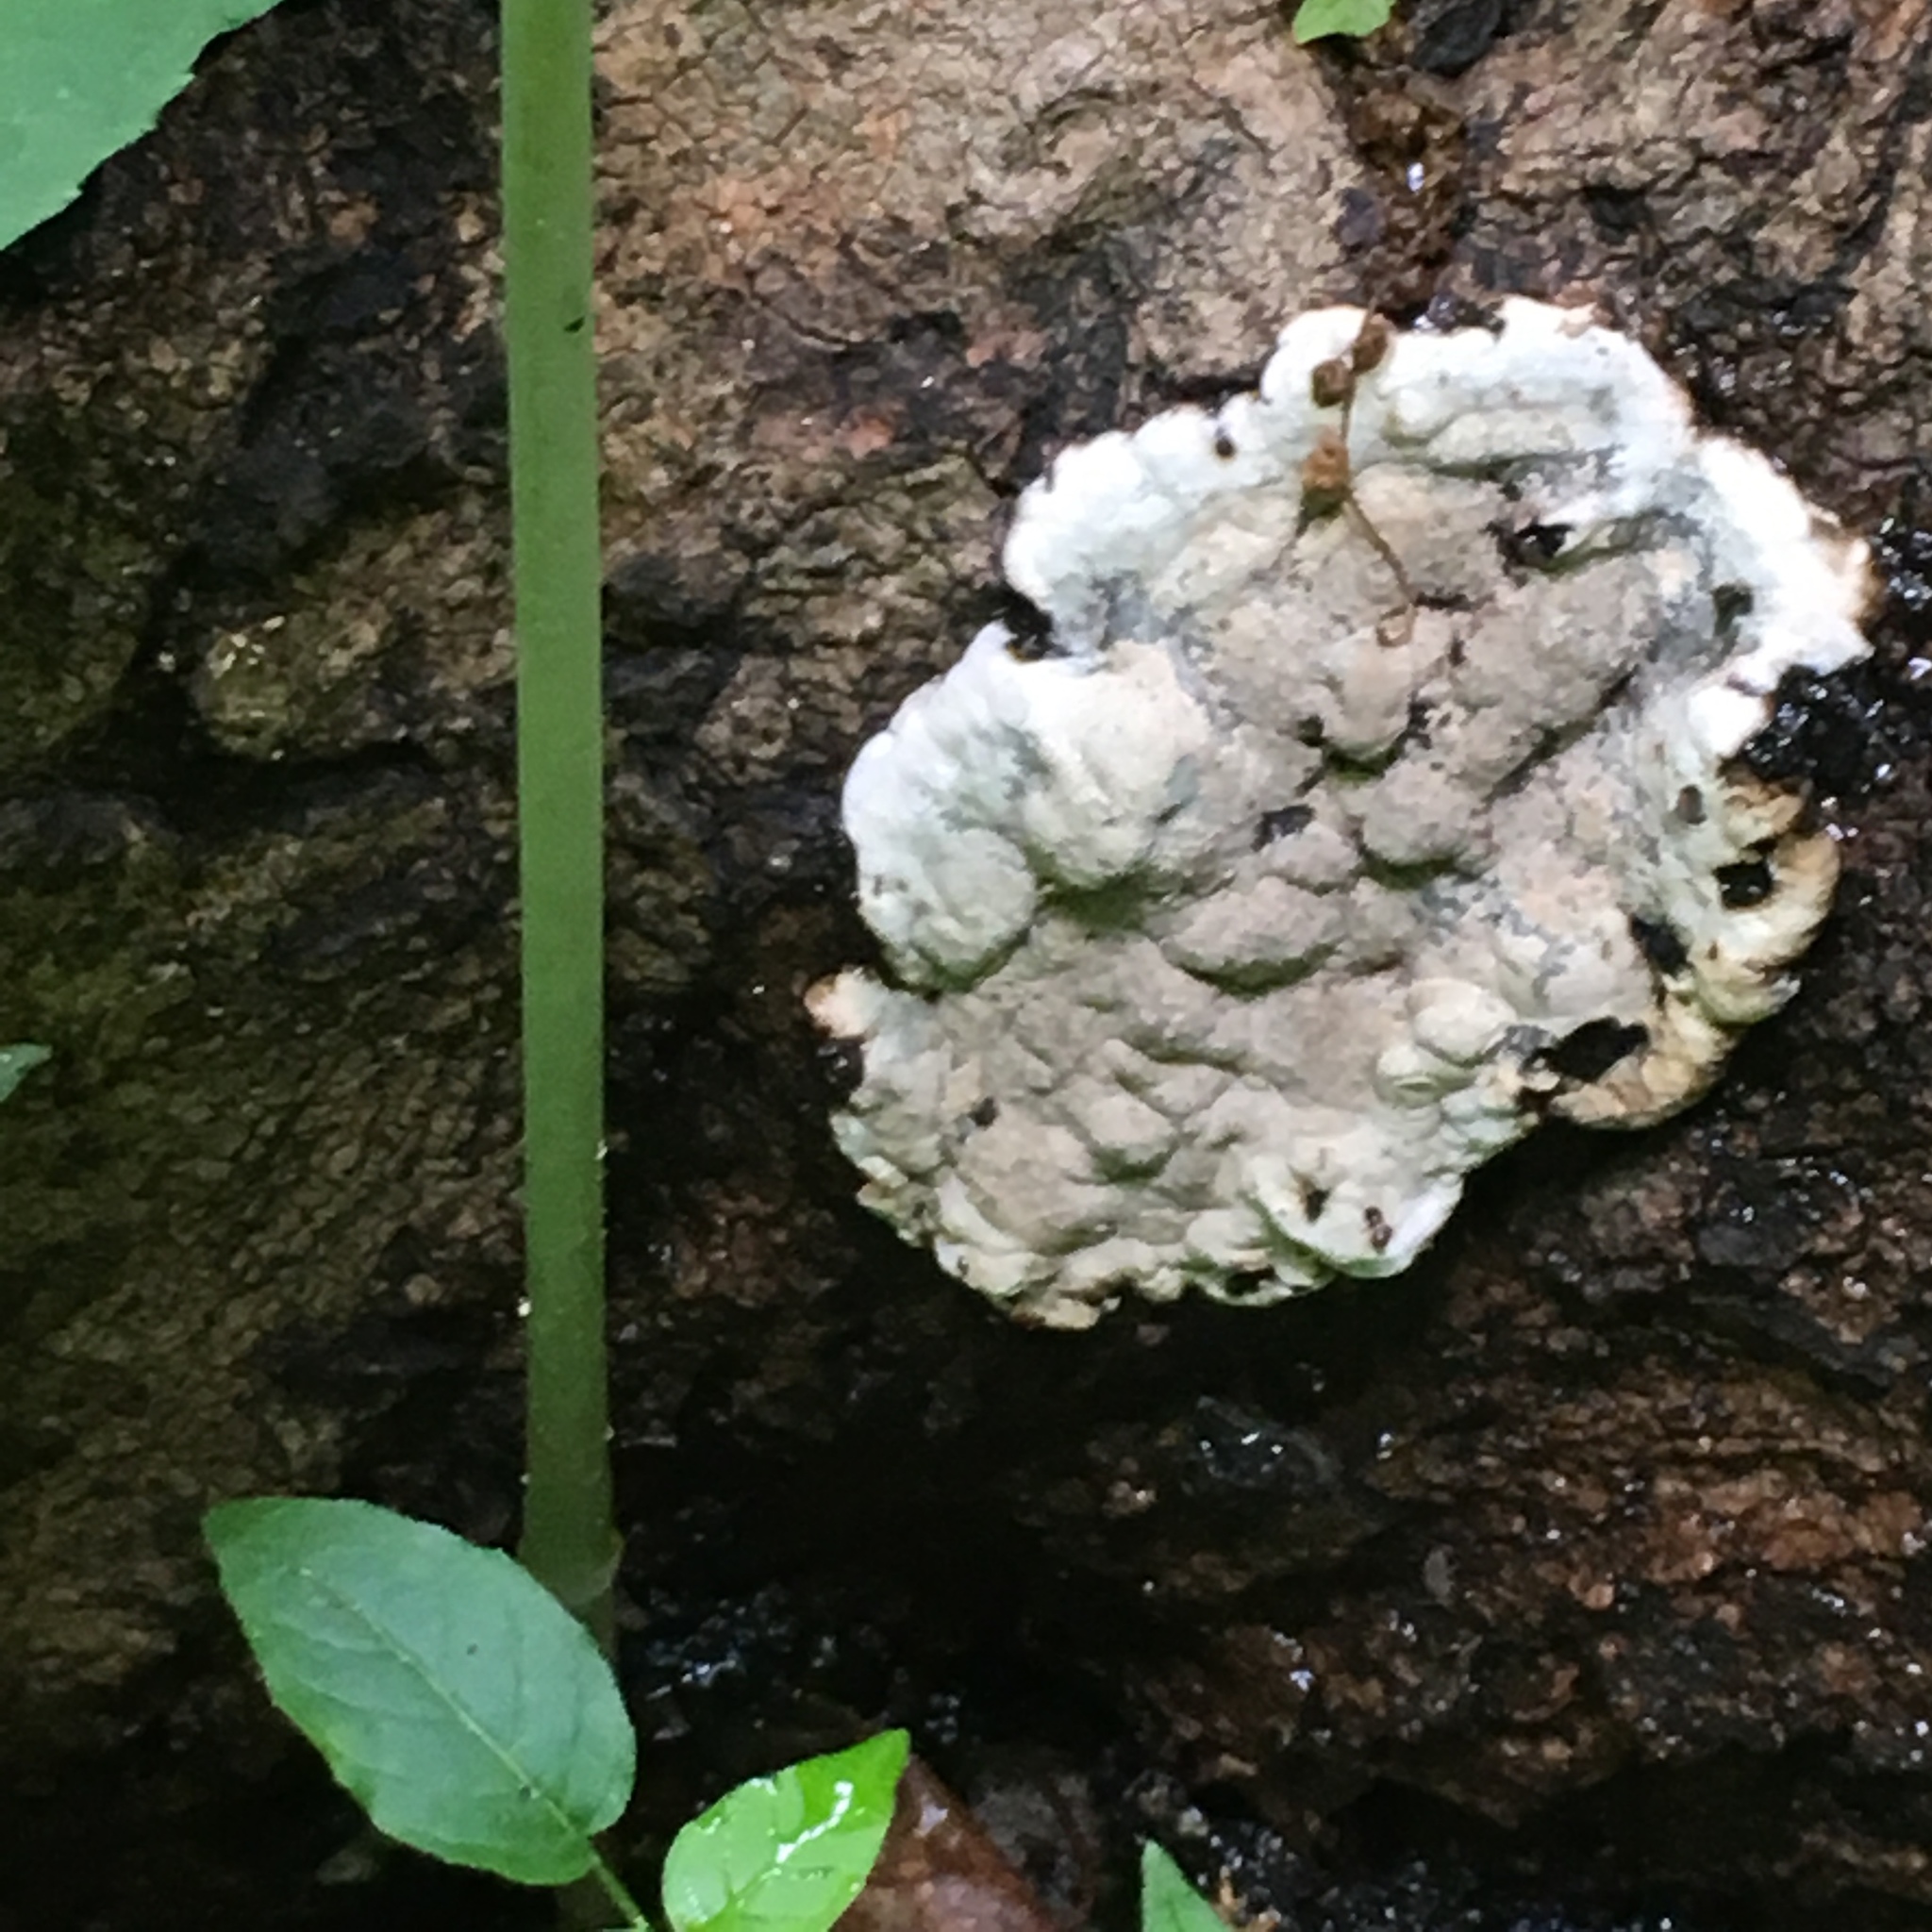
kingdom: Fungi
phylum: Ascomycota
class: Sordariomycetes
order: Xylariales
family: Xylariaceae
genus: Kretzschmaria
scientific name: Kretzschmaria deusta
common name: Brittle cinder
